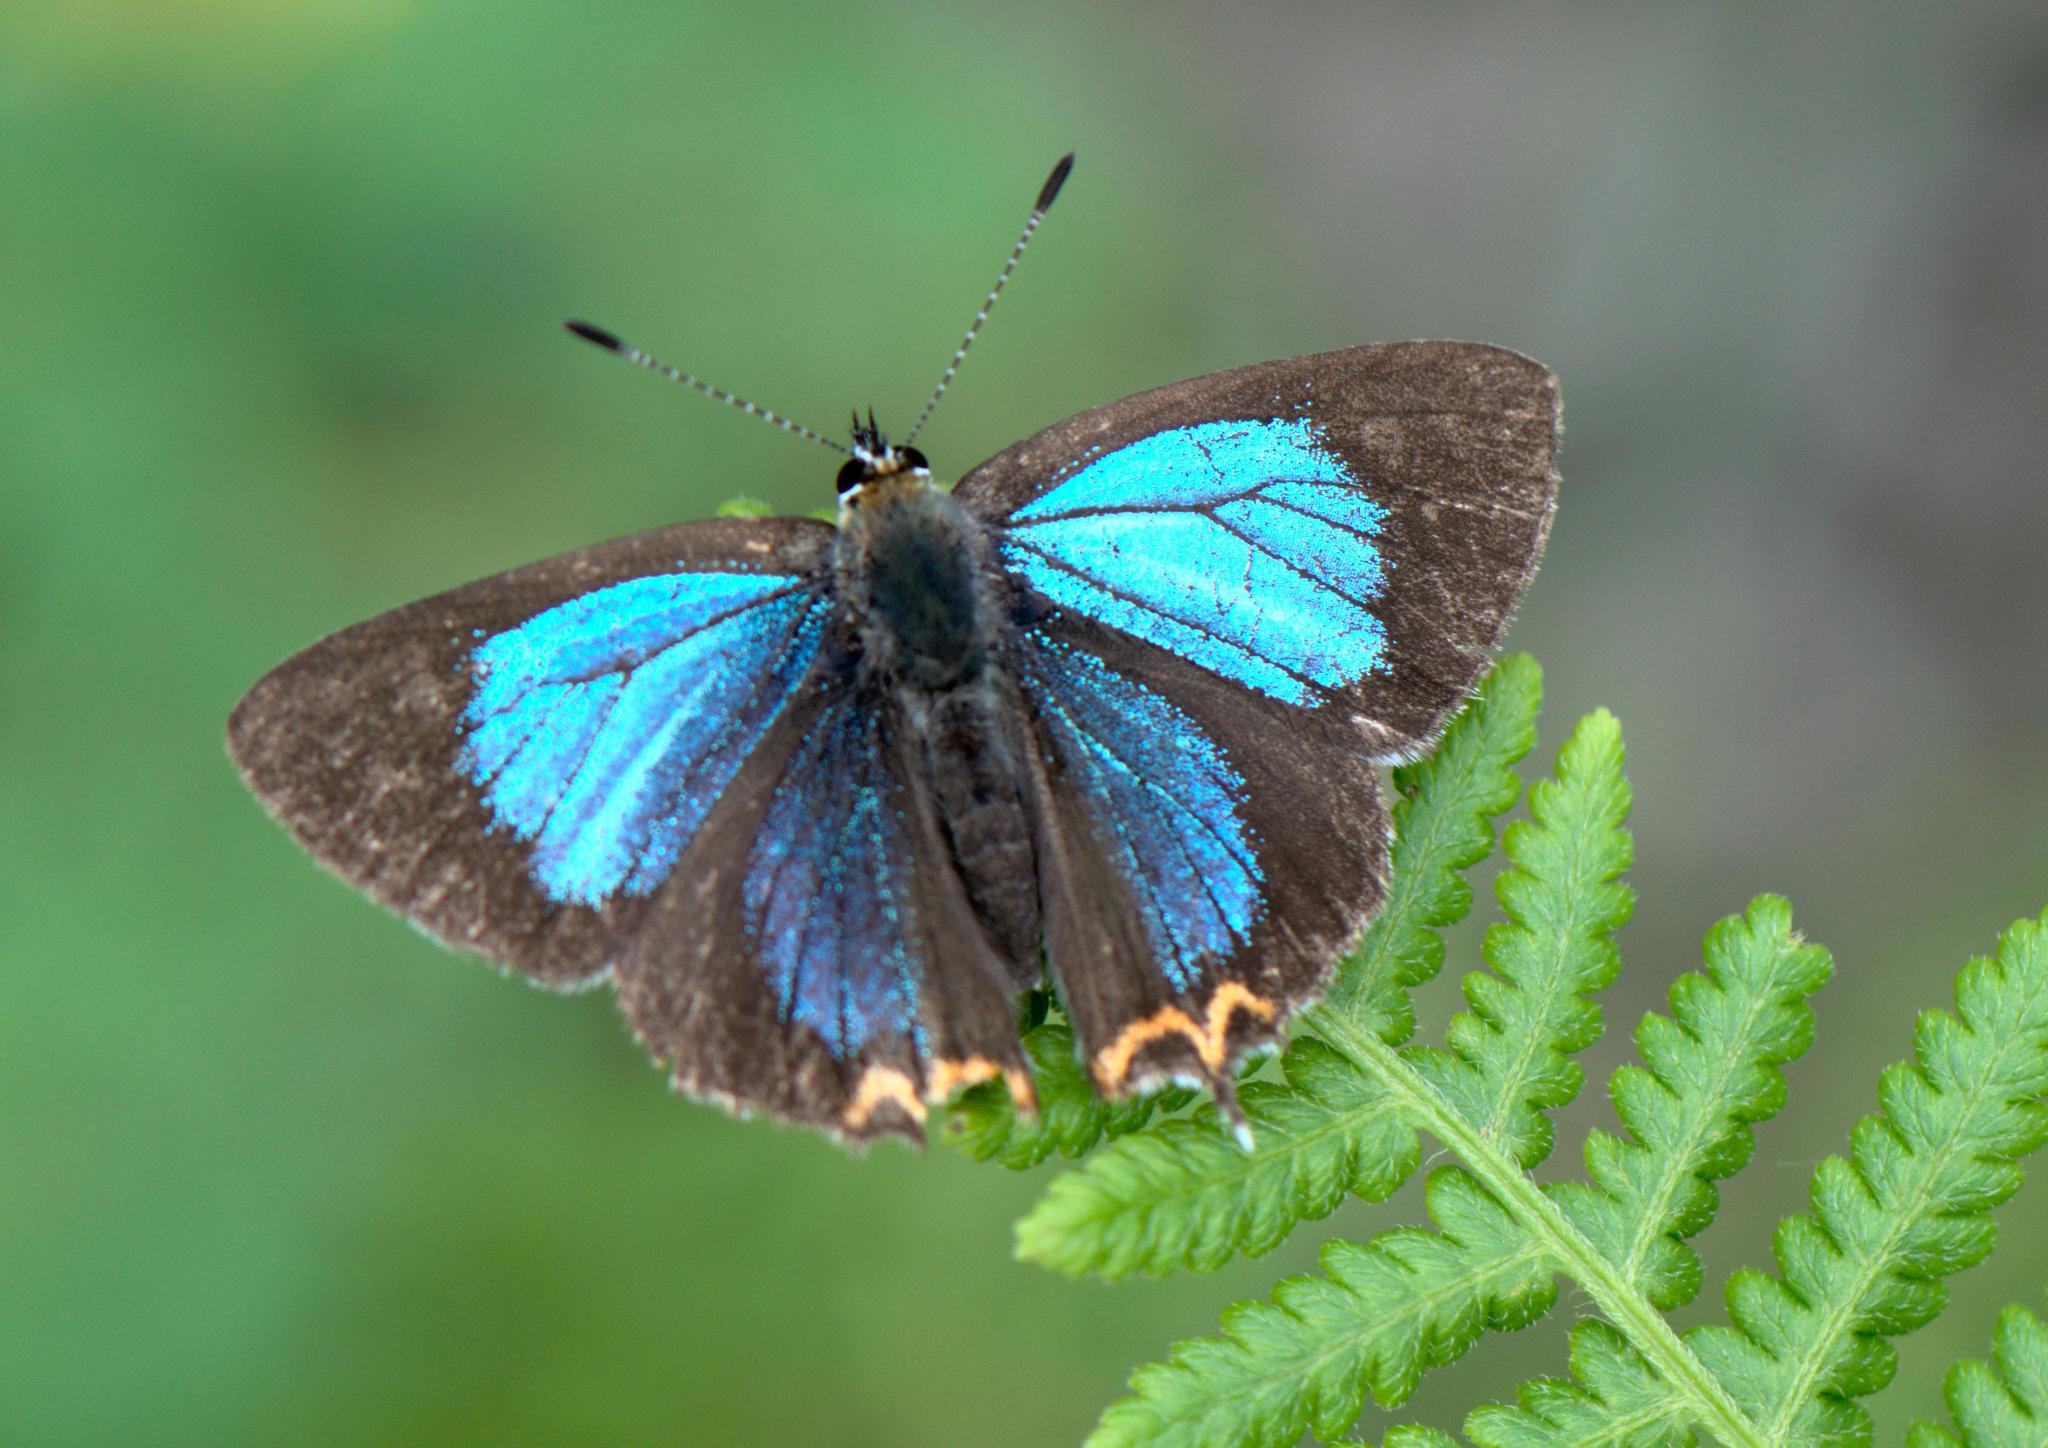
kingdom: Animalia
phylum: Arthropoda
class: Insecta
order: Lepidoptera
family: Lycaenidae
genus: Heliophorus
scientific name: Heliophorus
